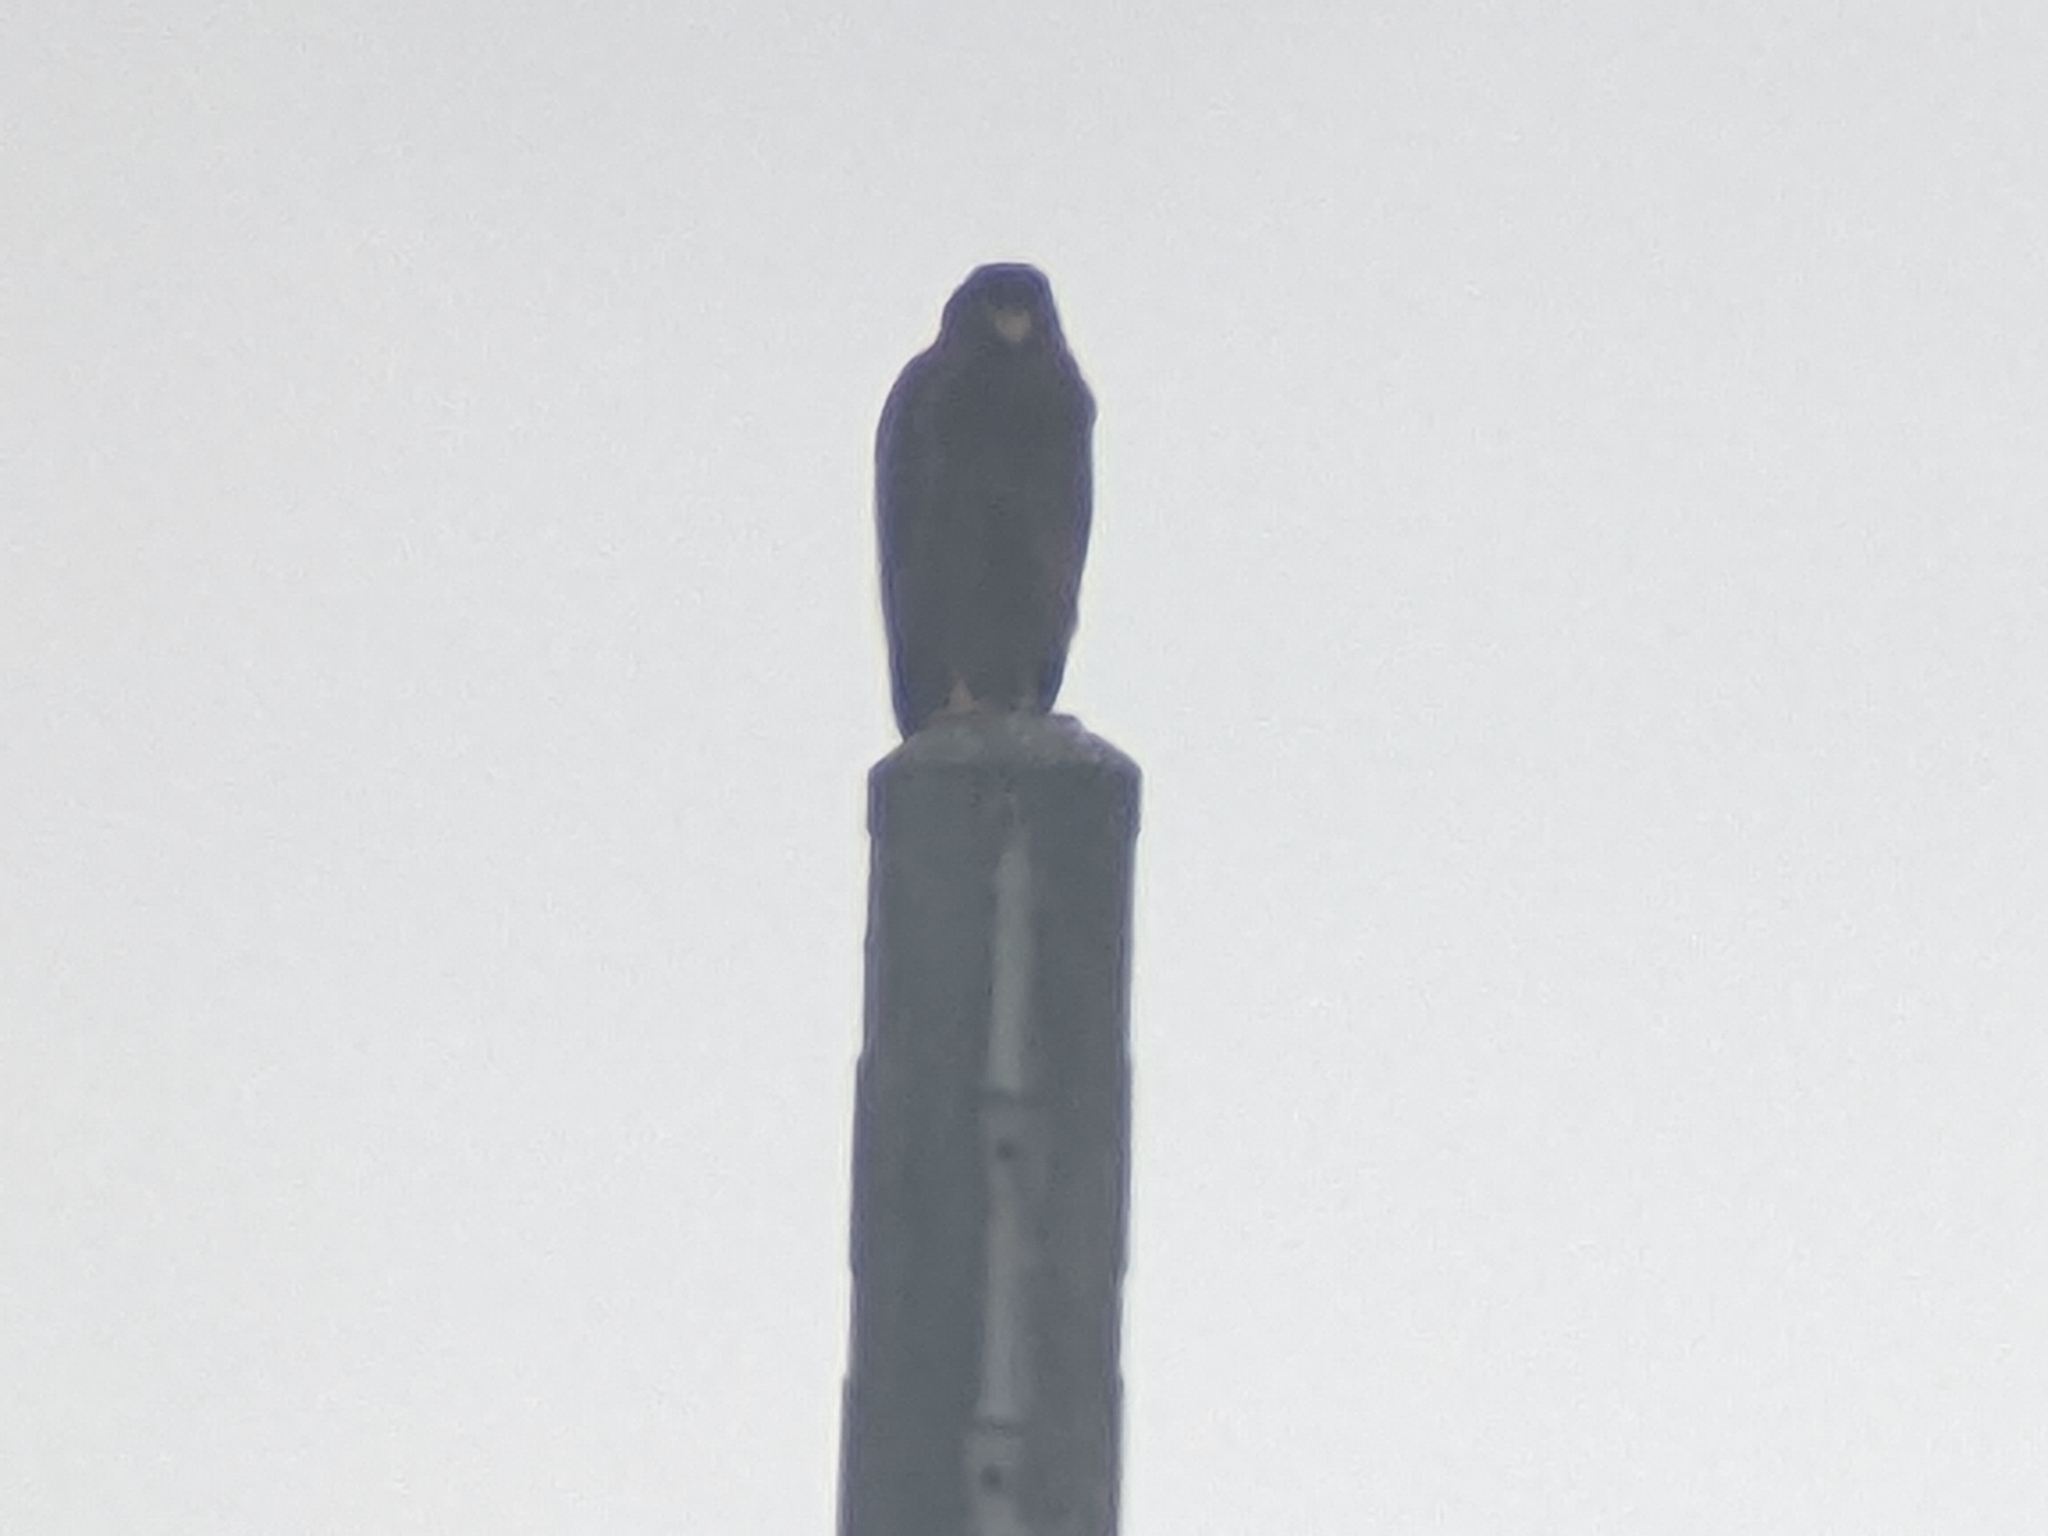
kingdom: Animalia
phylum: Chordata
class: Aves
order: Accipitriformes
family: Accipitridae
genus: Spilornis
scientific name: Spilornis cheela
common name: Crested serpent eagle
